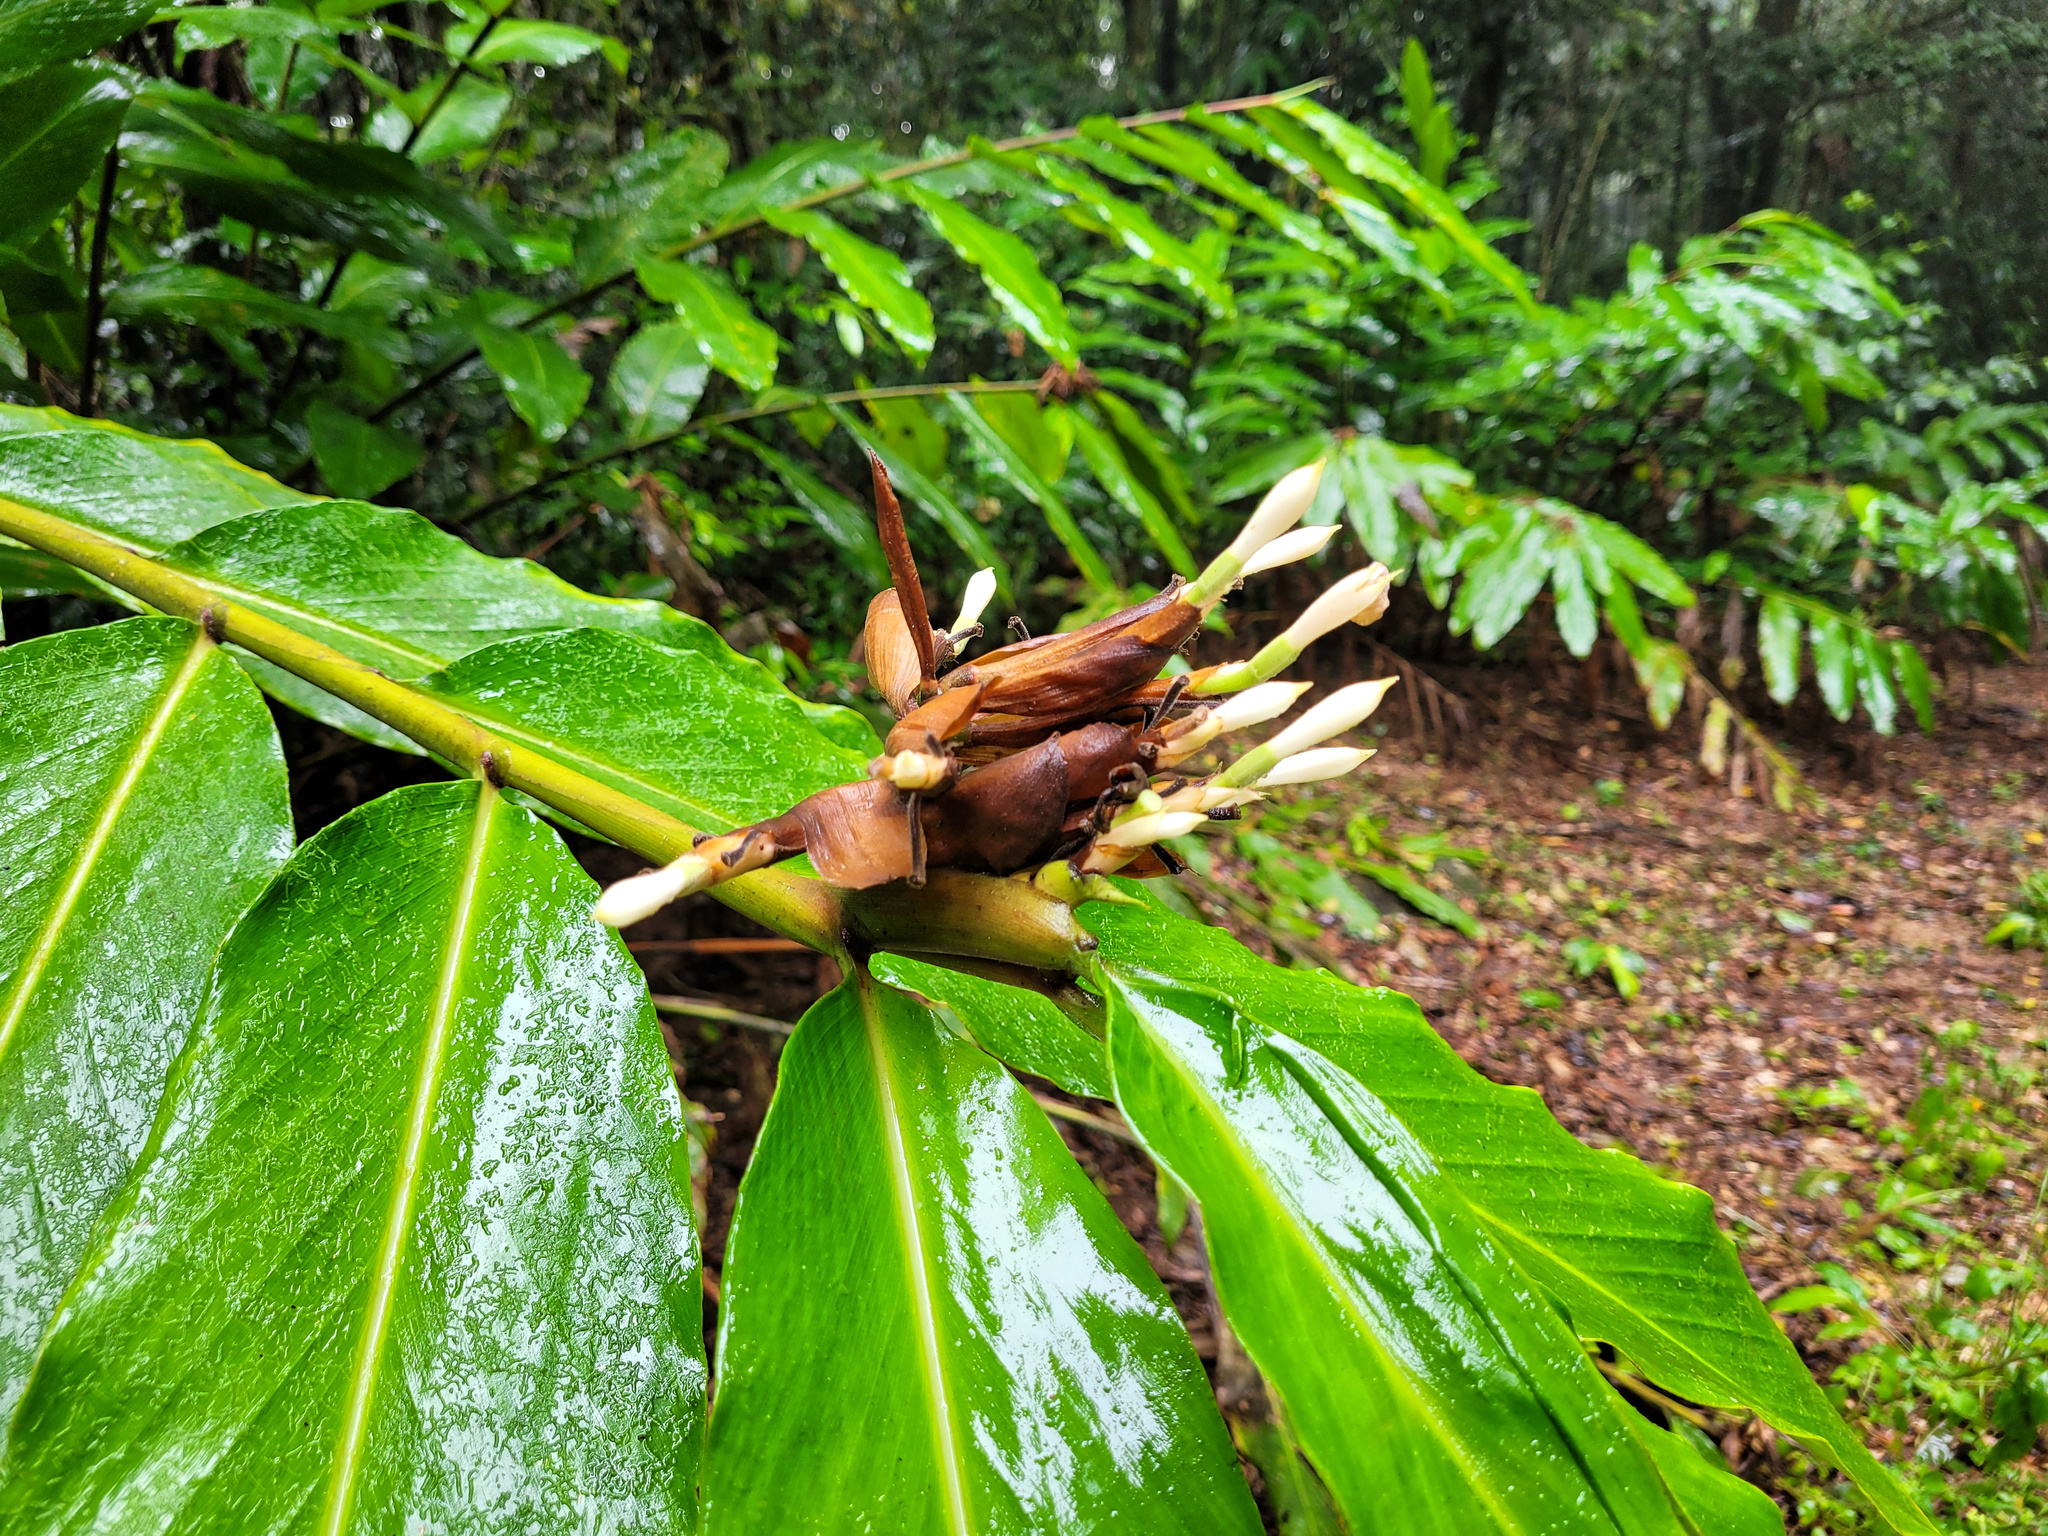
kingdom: Plantae
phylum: Tracheophyta
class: Liliopsida
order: Zingiberales
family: Zingiberaceae
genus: Alpinia
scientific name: Alpinia arctiflora
